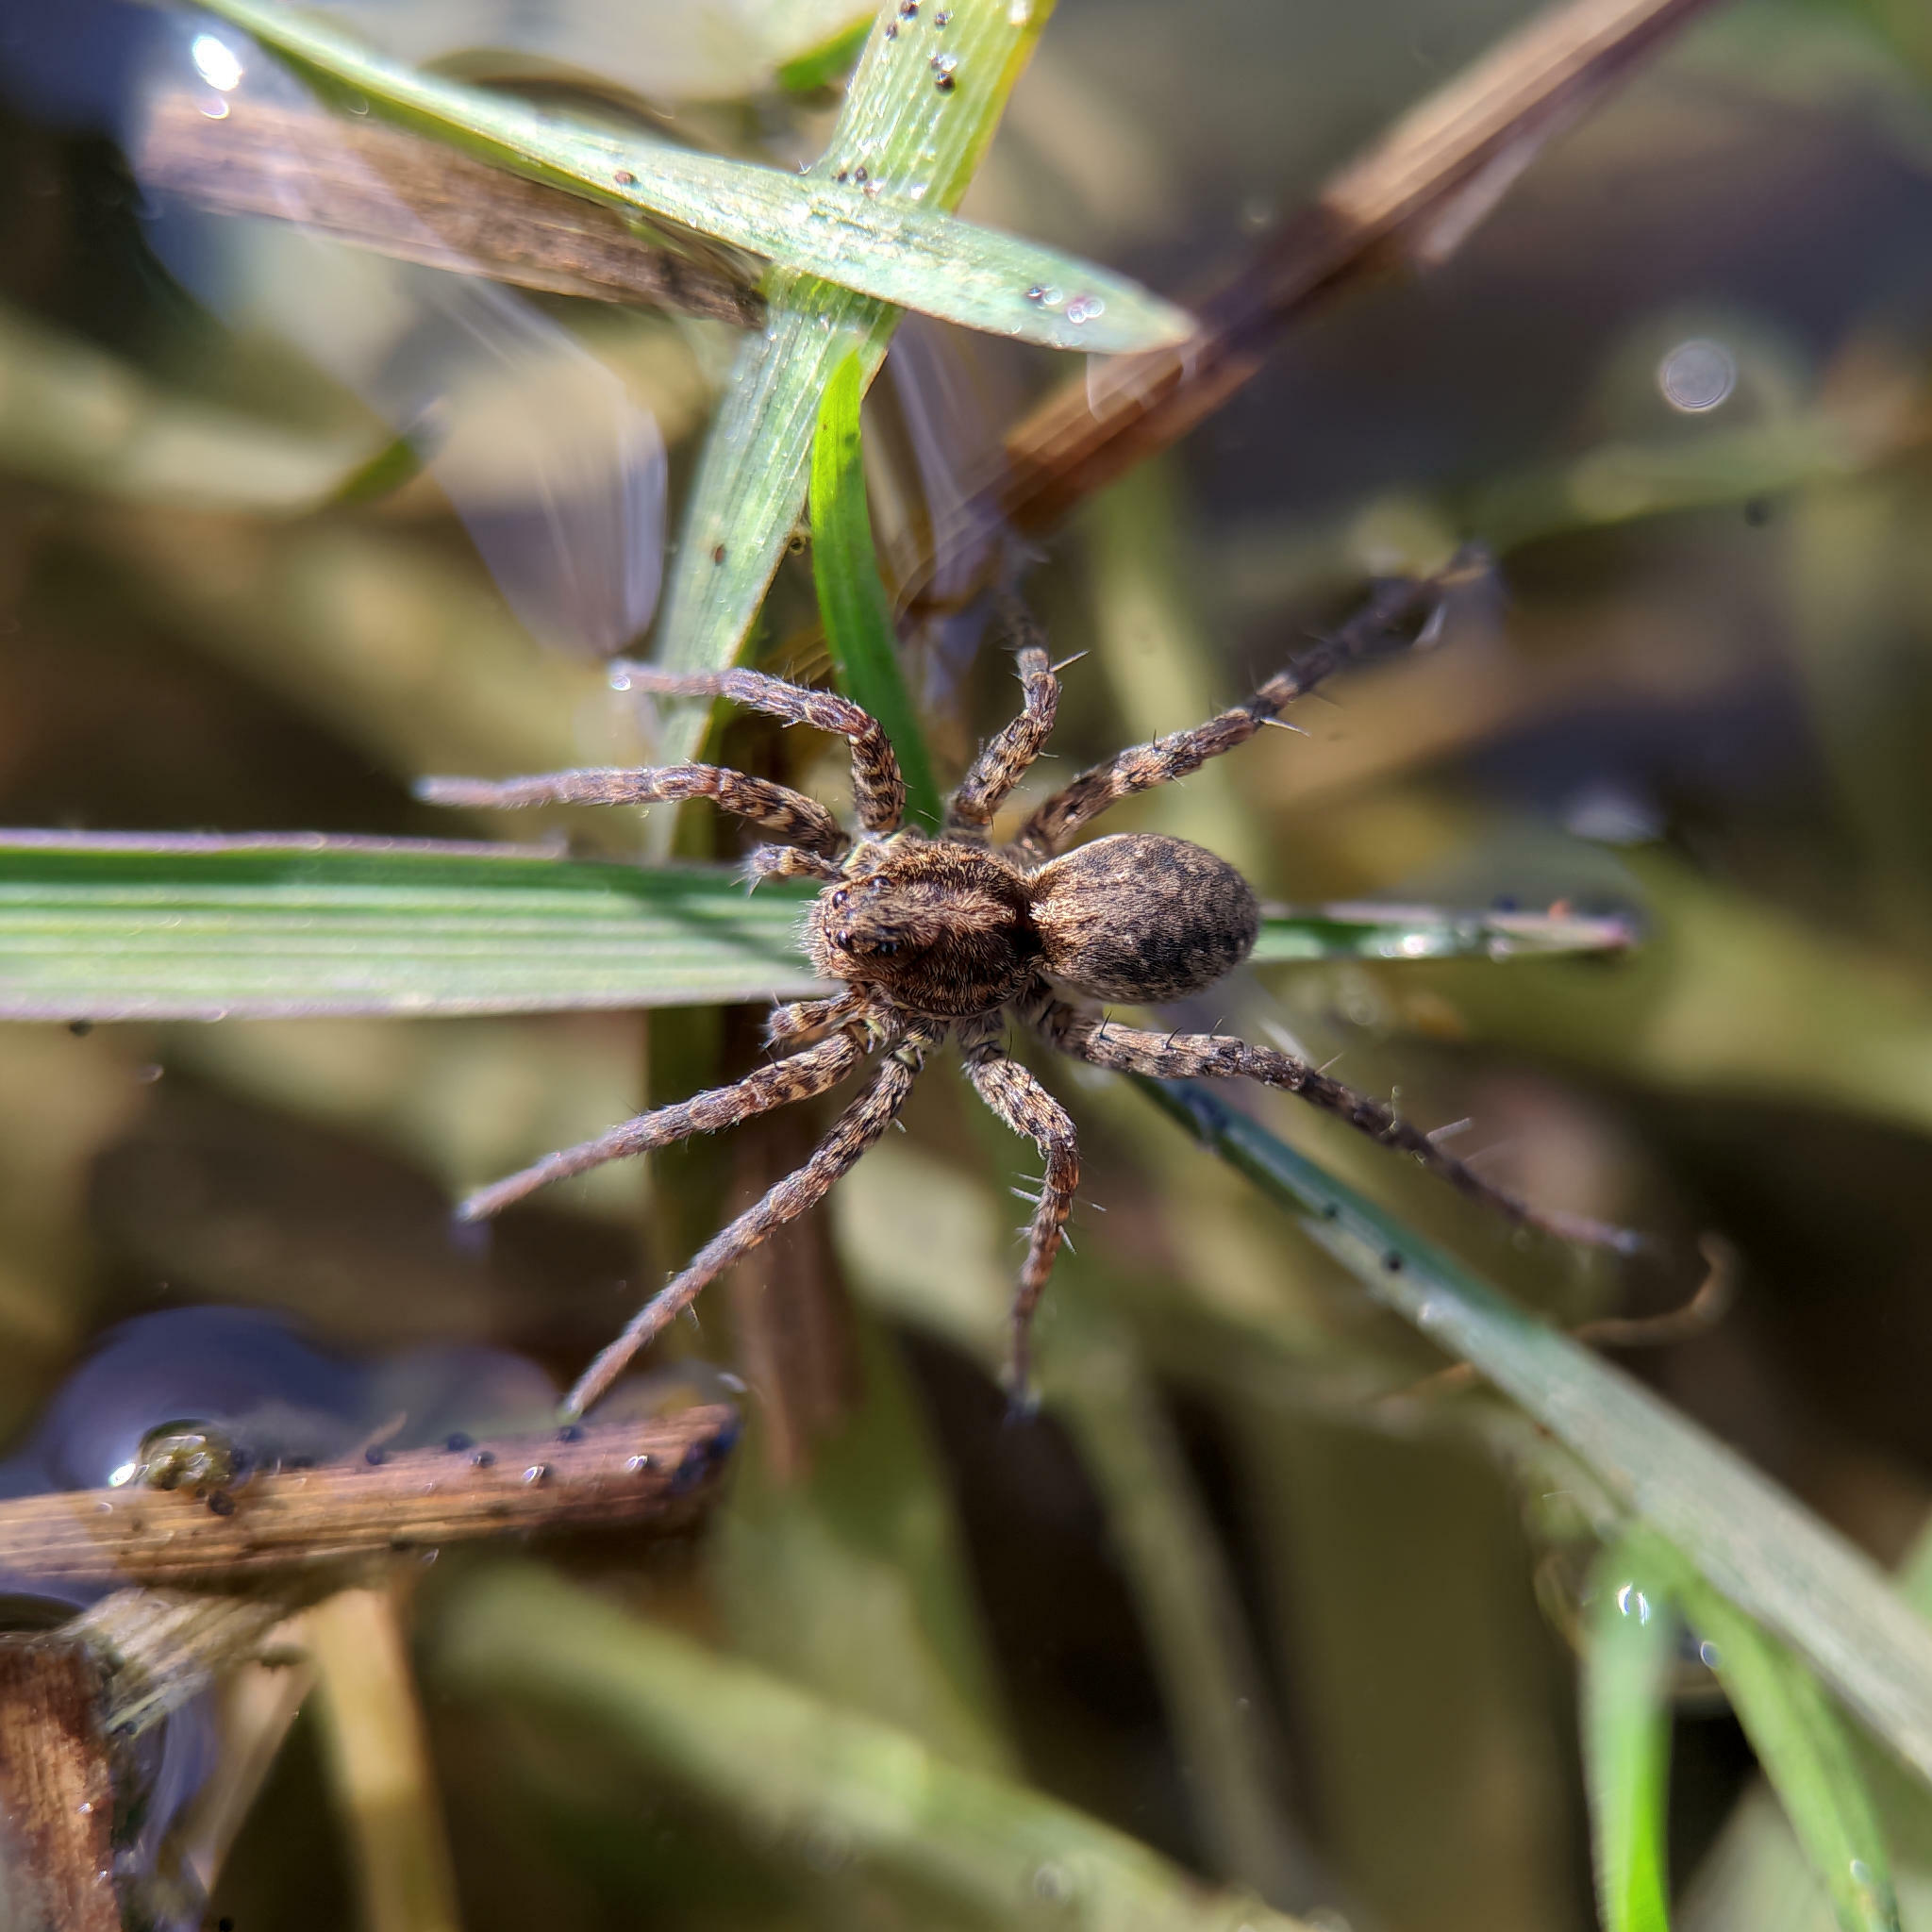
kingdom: Animalia
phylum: Arthropoda
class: Arachnida
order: Araneae
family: Lycosidae
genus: Pardosa
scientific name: Pardosa
